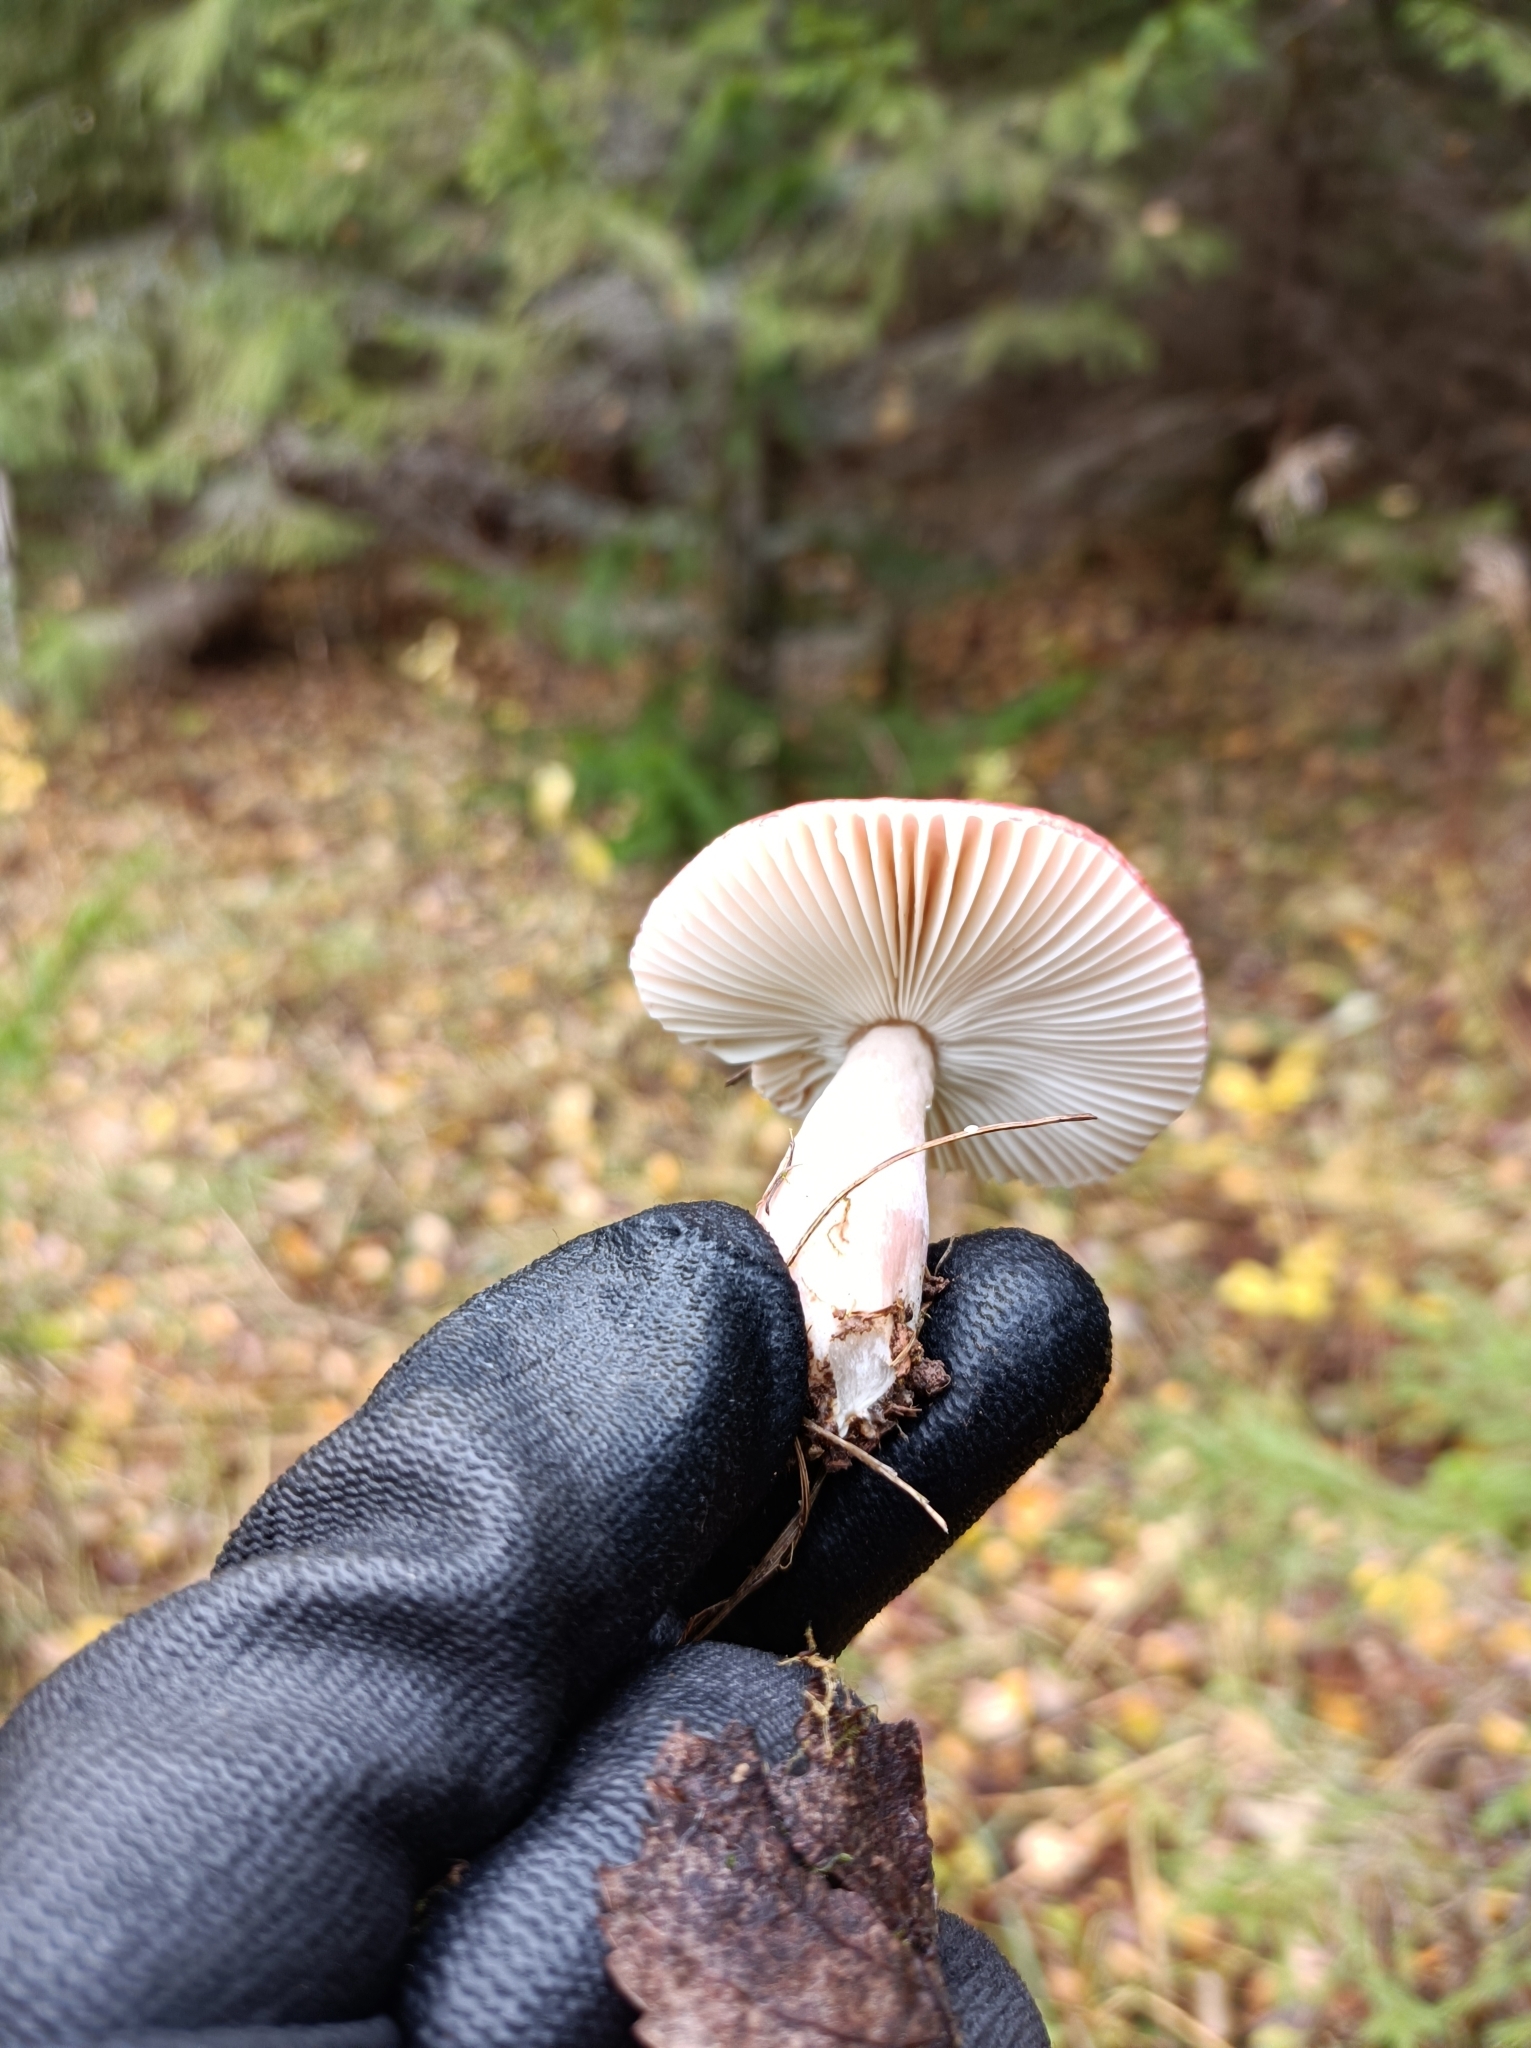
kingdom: Fungi
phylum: Basidiomycota
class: Agaricomycetes
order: Russulales
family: Russulaceae
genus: Russula
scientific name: Russula
